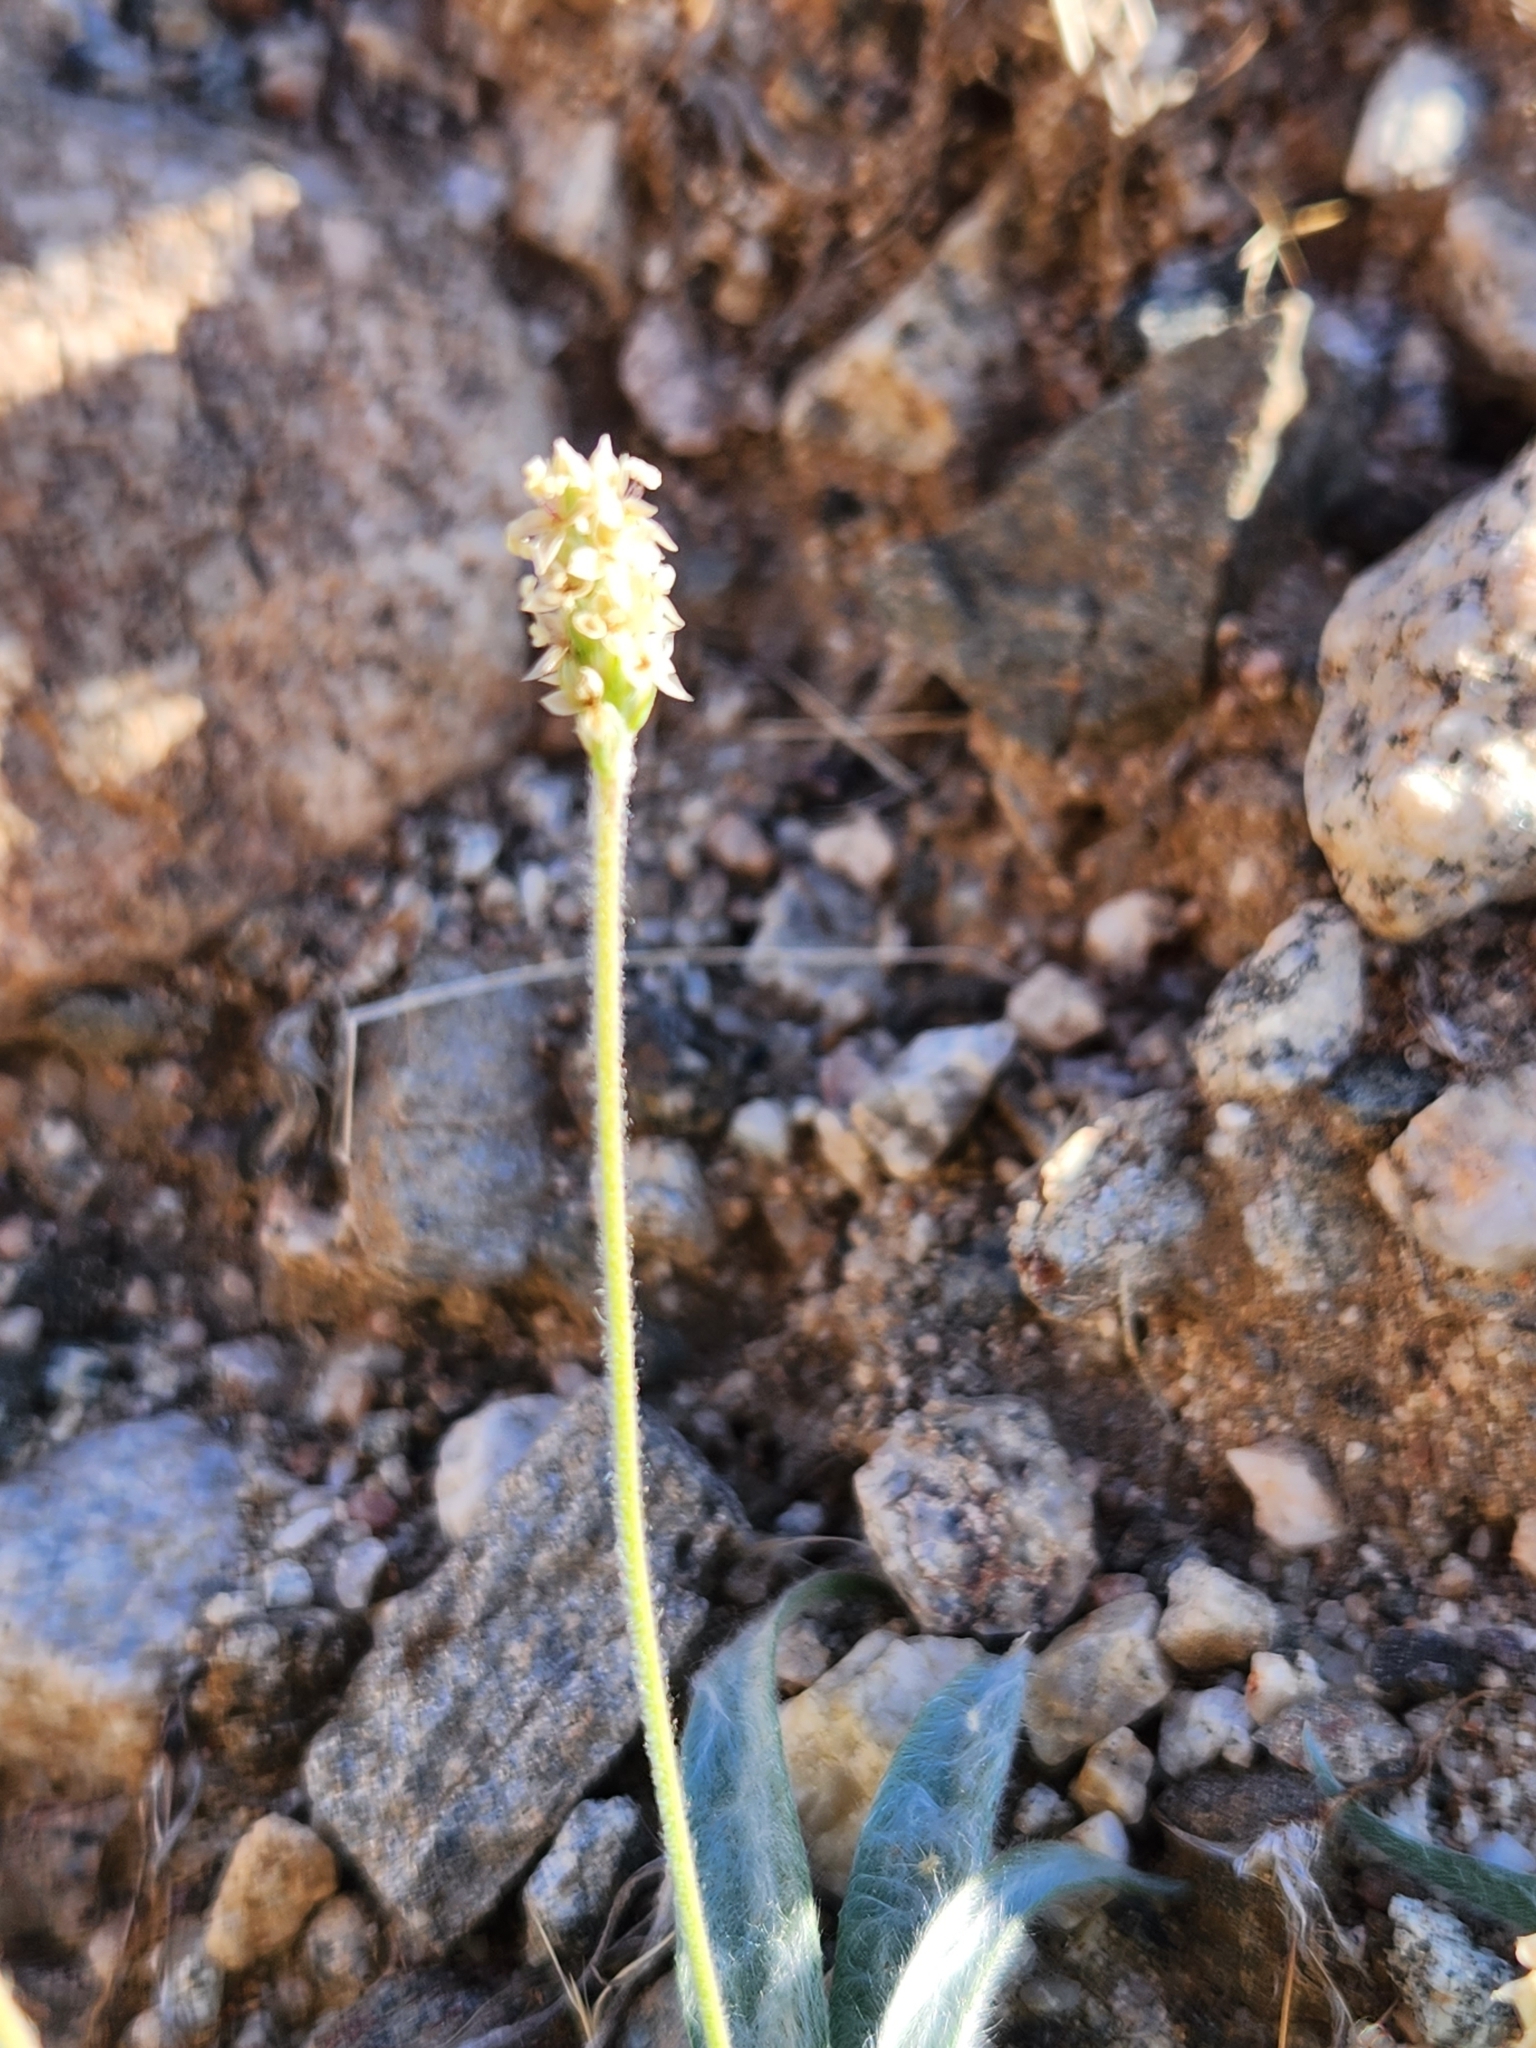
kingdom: Plantae
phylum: Tracheophyta
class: Magnoliopsida
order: Lamiales
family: Plantaginaceae
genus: Plantago
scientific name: Plantago ovata
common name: Blond plantain
